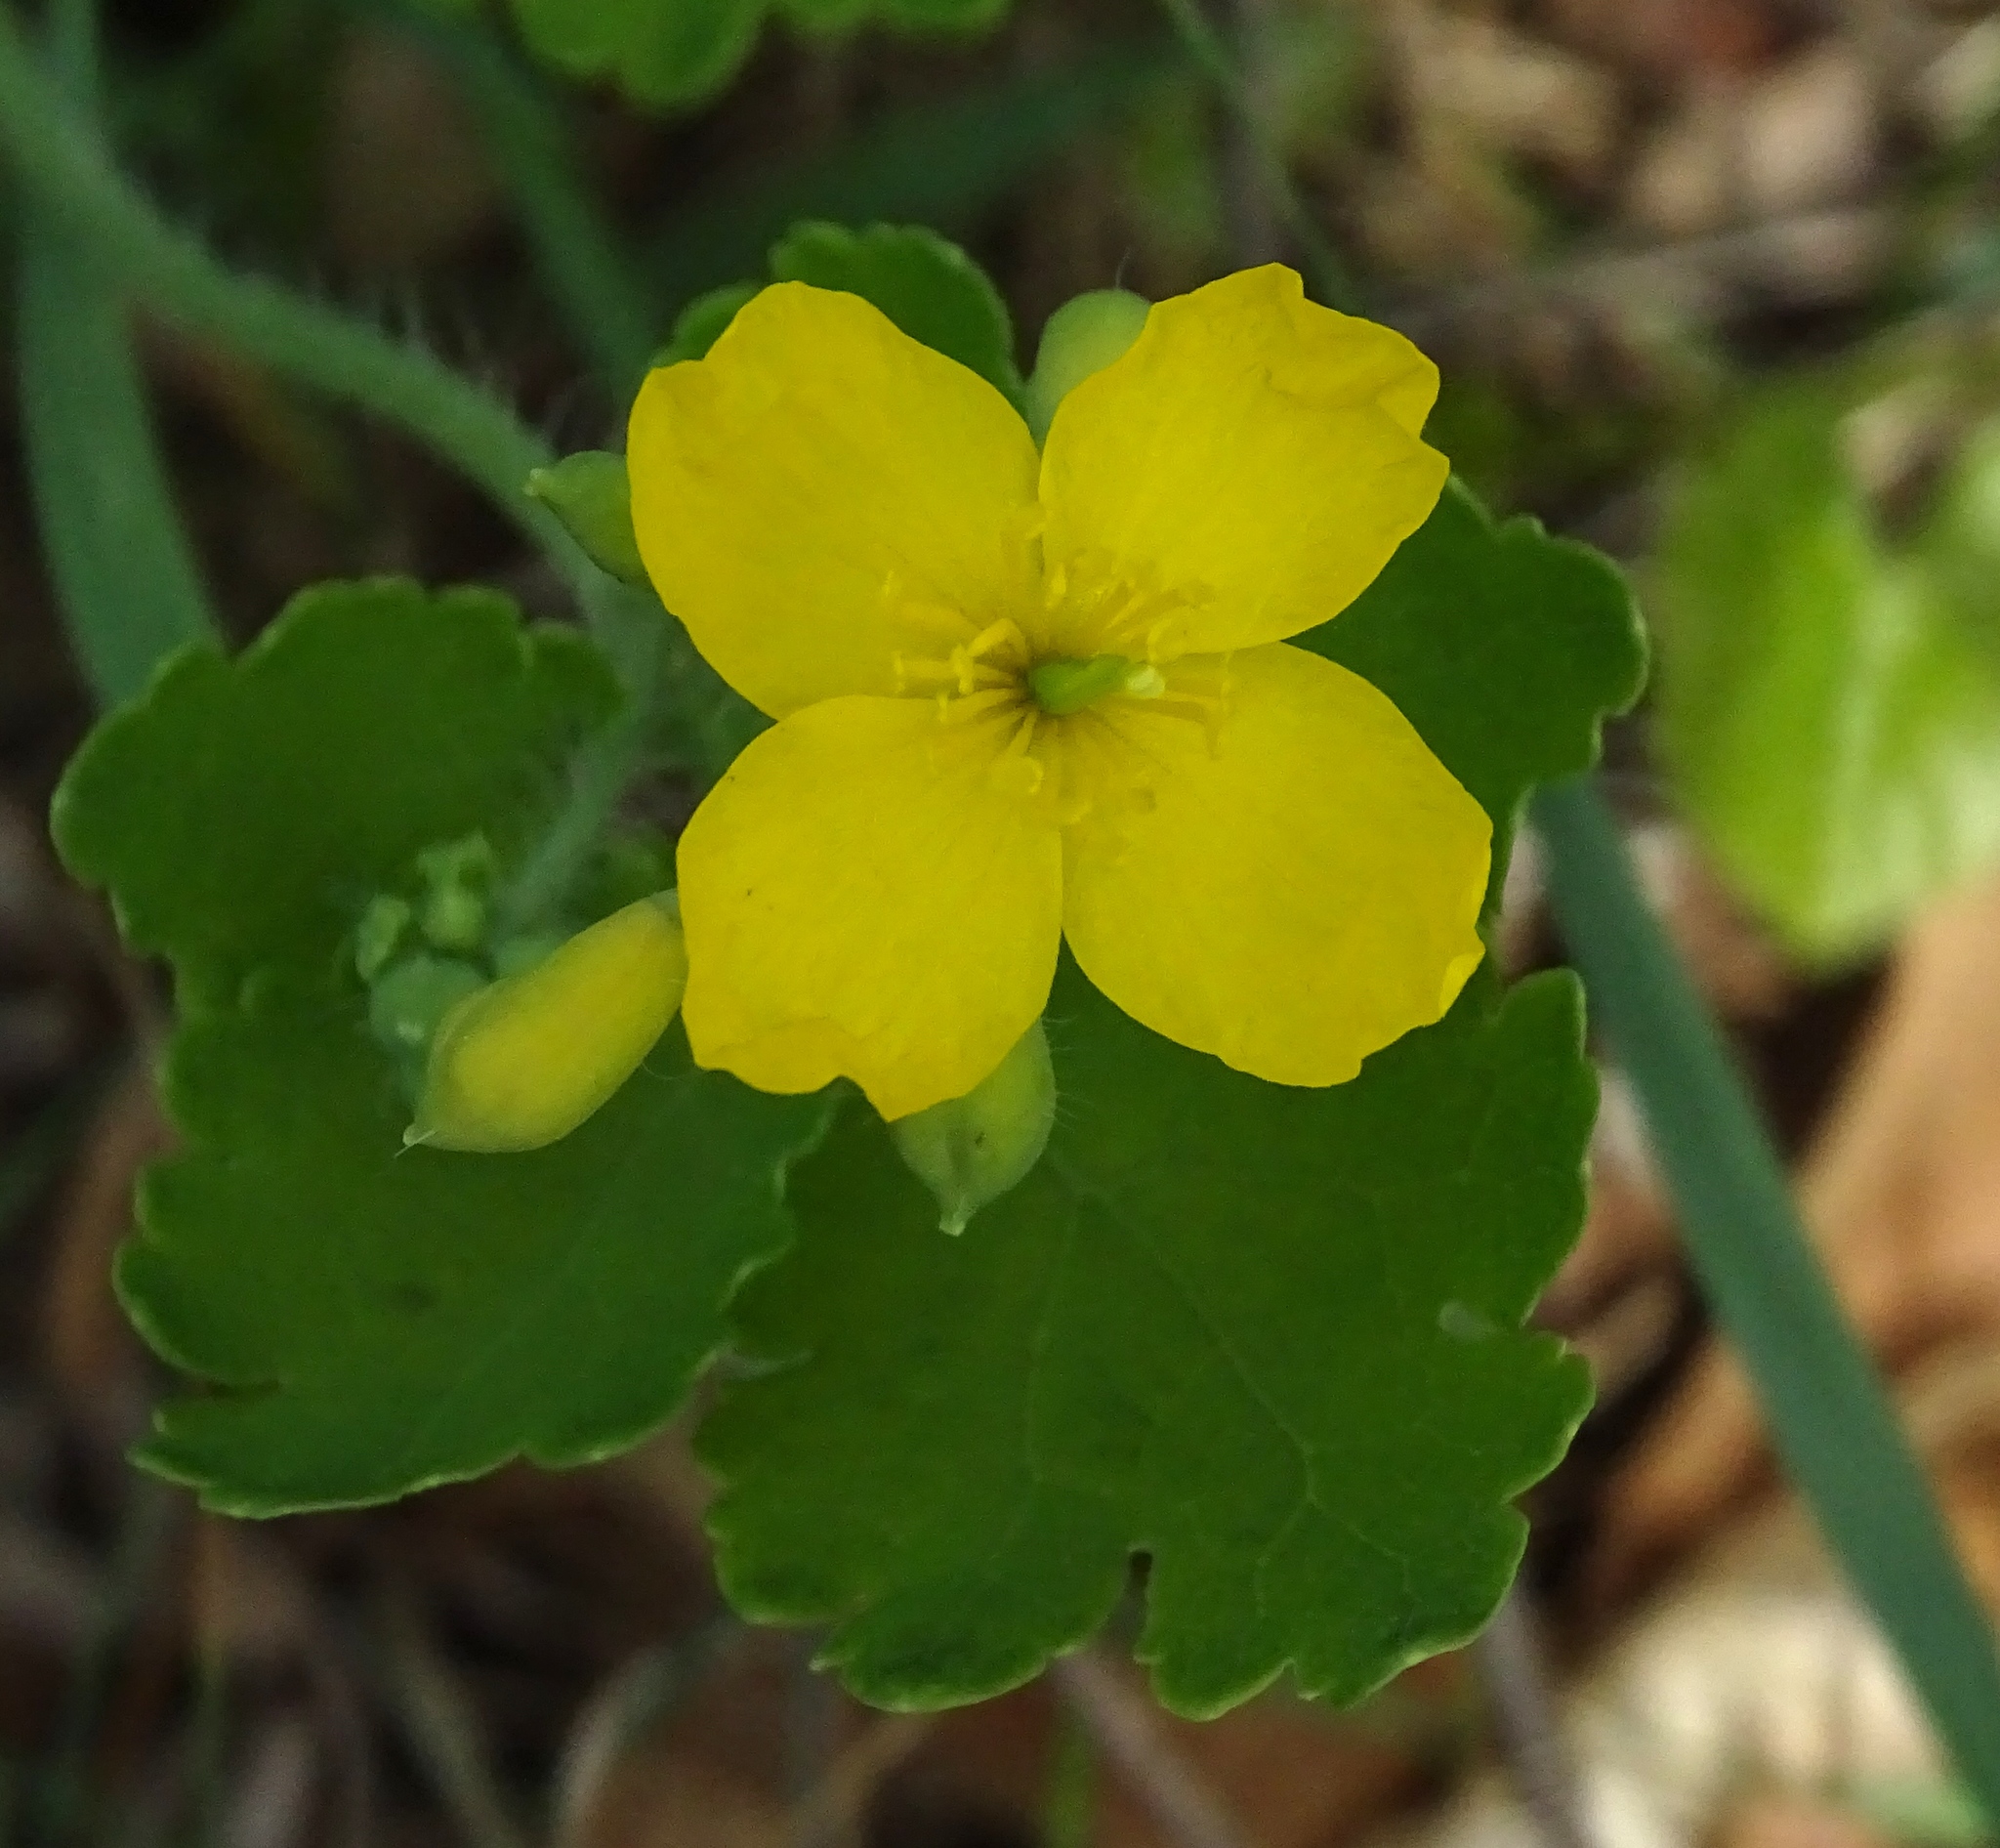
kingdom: Plantae
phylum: Tracheophyta
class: Magnoliopsida
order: Ranunculales
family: Papaveraceae
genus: Chelidonium
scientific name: Chelidonium majus
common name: Greater celandine
